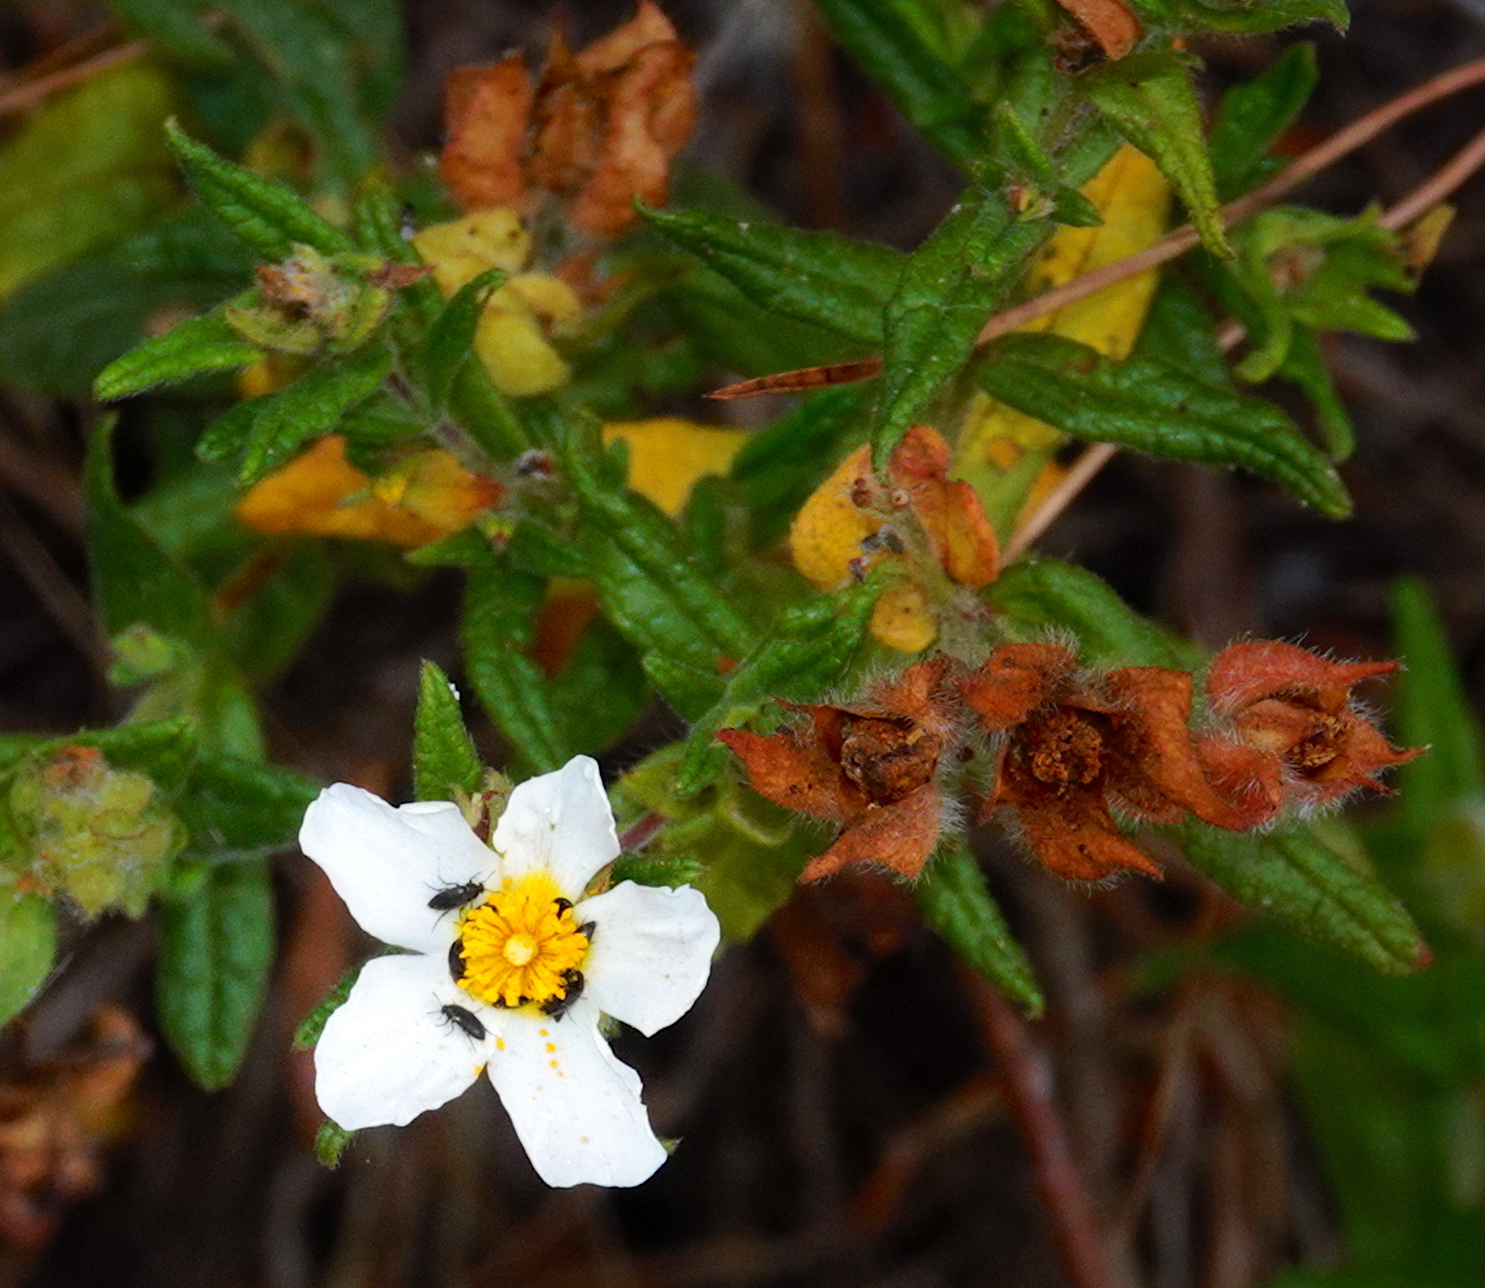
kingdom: Plantae
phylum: Tracheophyta
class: Magnoliopsida
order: Malvales
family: Cistaceae
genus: Cistus
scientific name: Cistus inflatus
